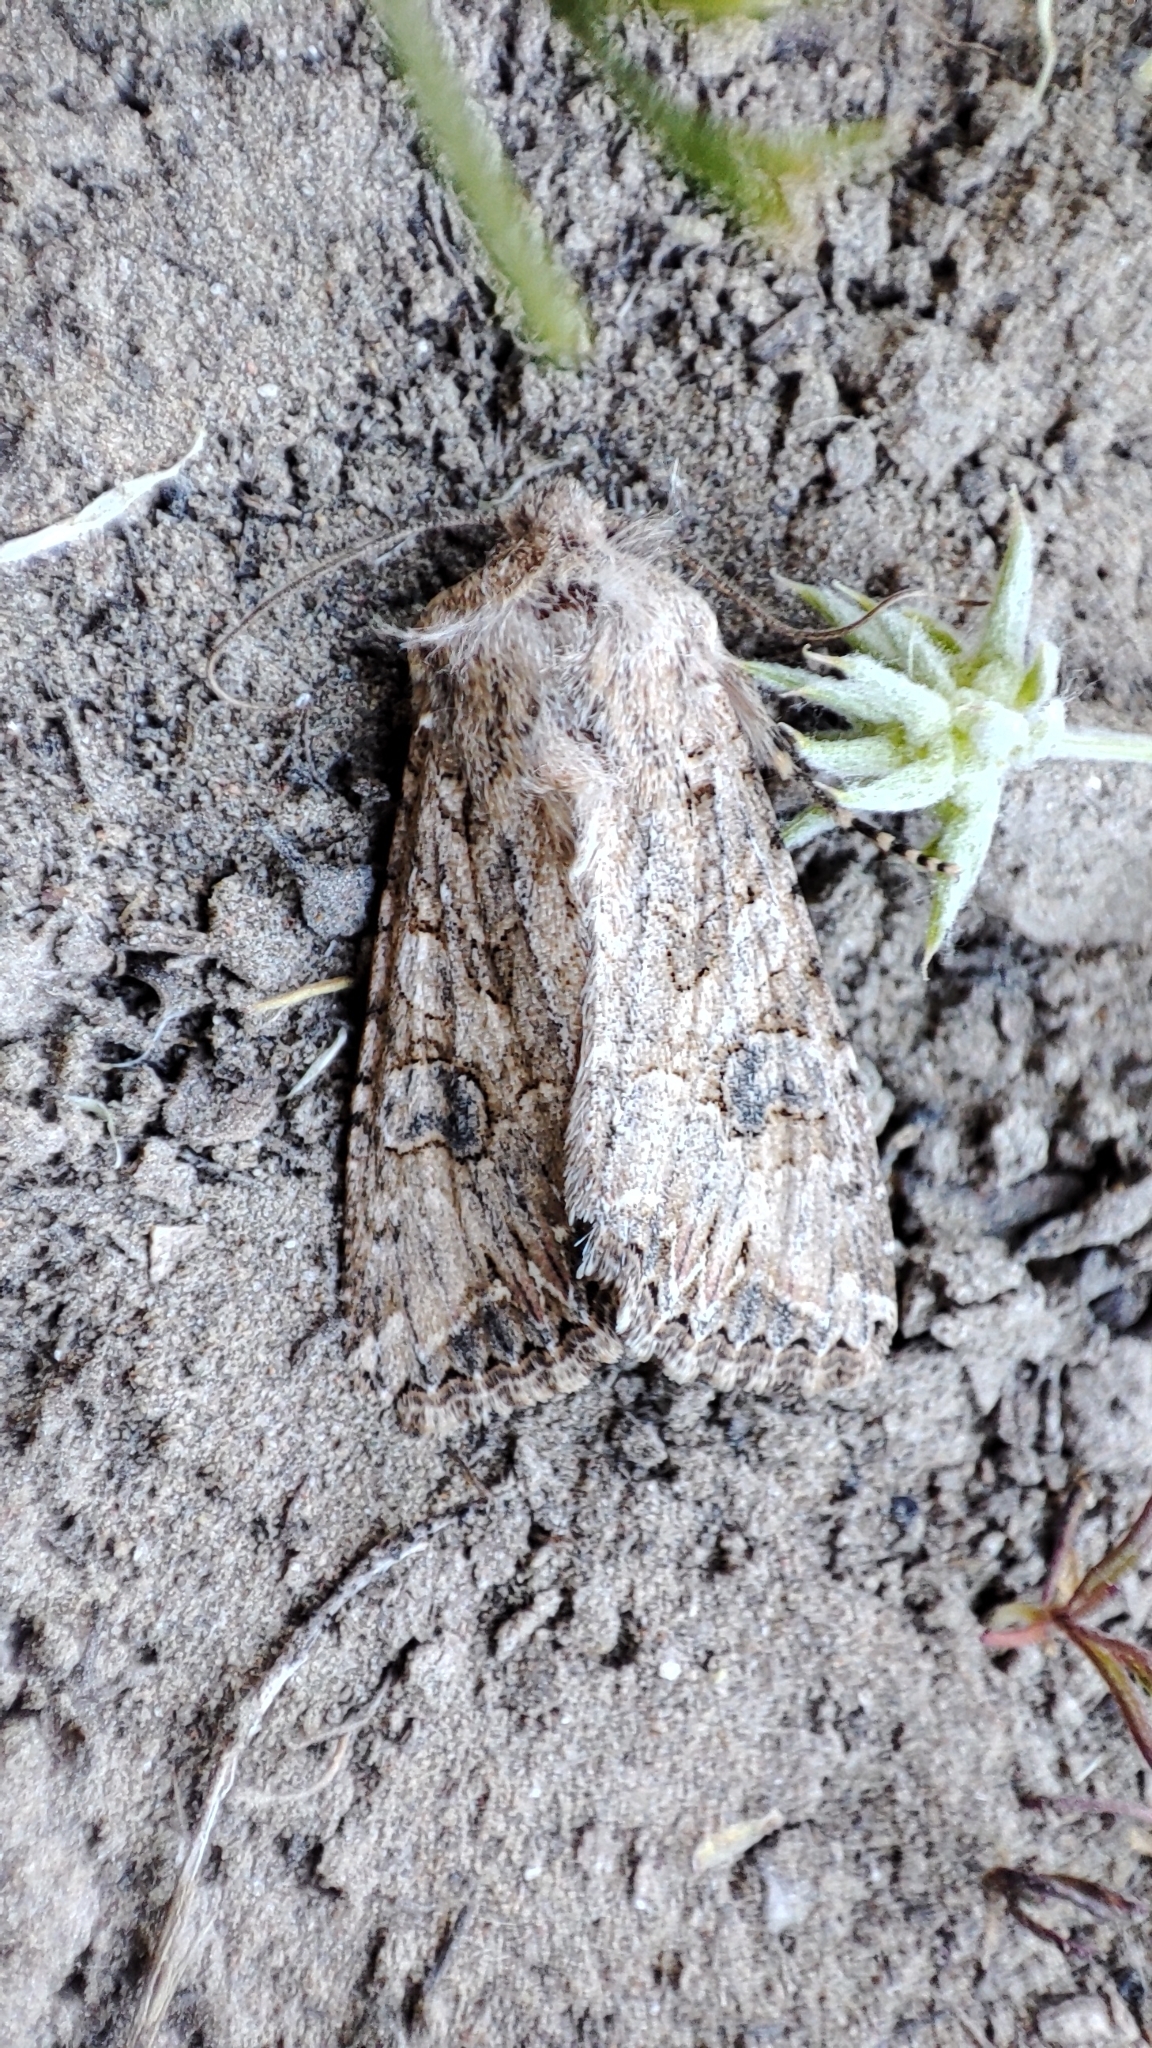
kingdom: Animalia
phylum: Arthropoda
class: Insecta
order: Lepidoptera
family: Noctuidae
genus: Anarta
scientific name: Anarta trifolii
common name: Clover cutworm moth
